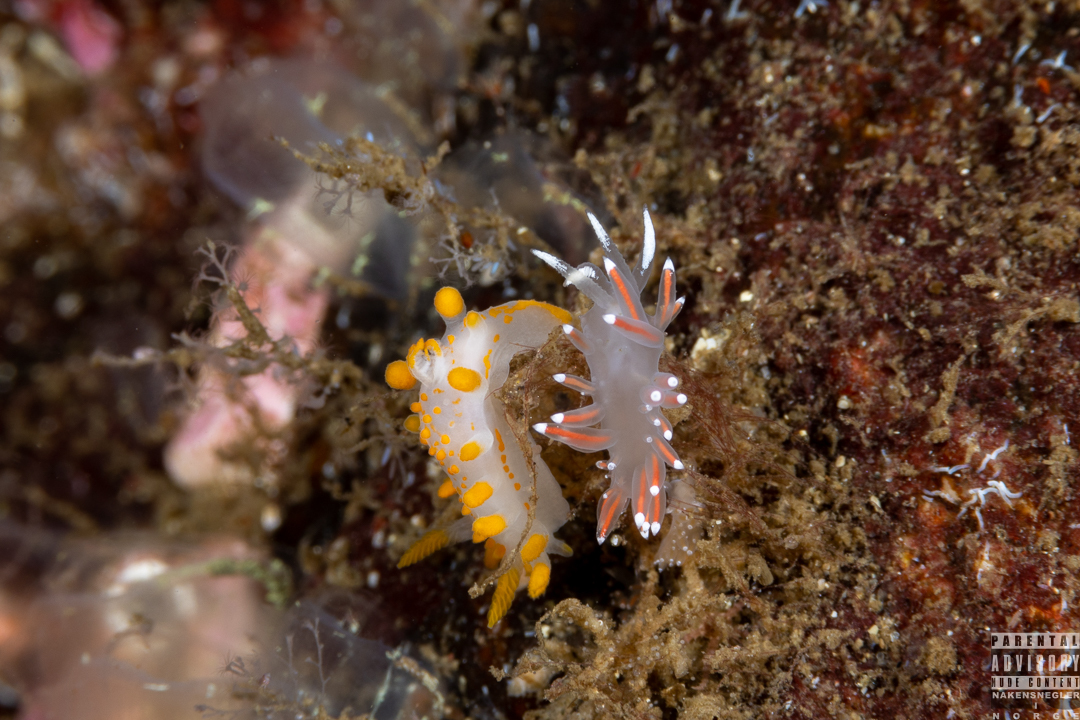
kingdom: Animalia
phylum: Mollusca
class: Gastropoda
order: Nudibranchia
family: Polyceridae
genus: Limacia
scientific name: Limacia clavigera
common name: Orange-clubbed sea slug
